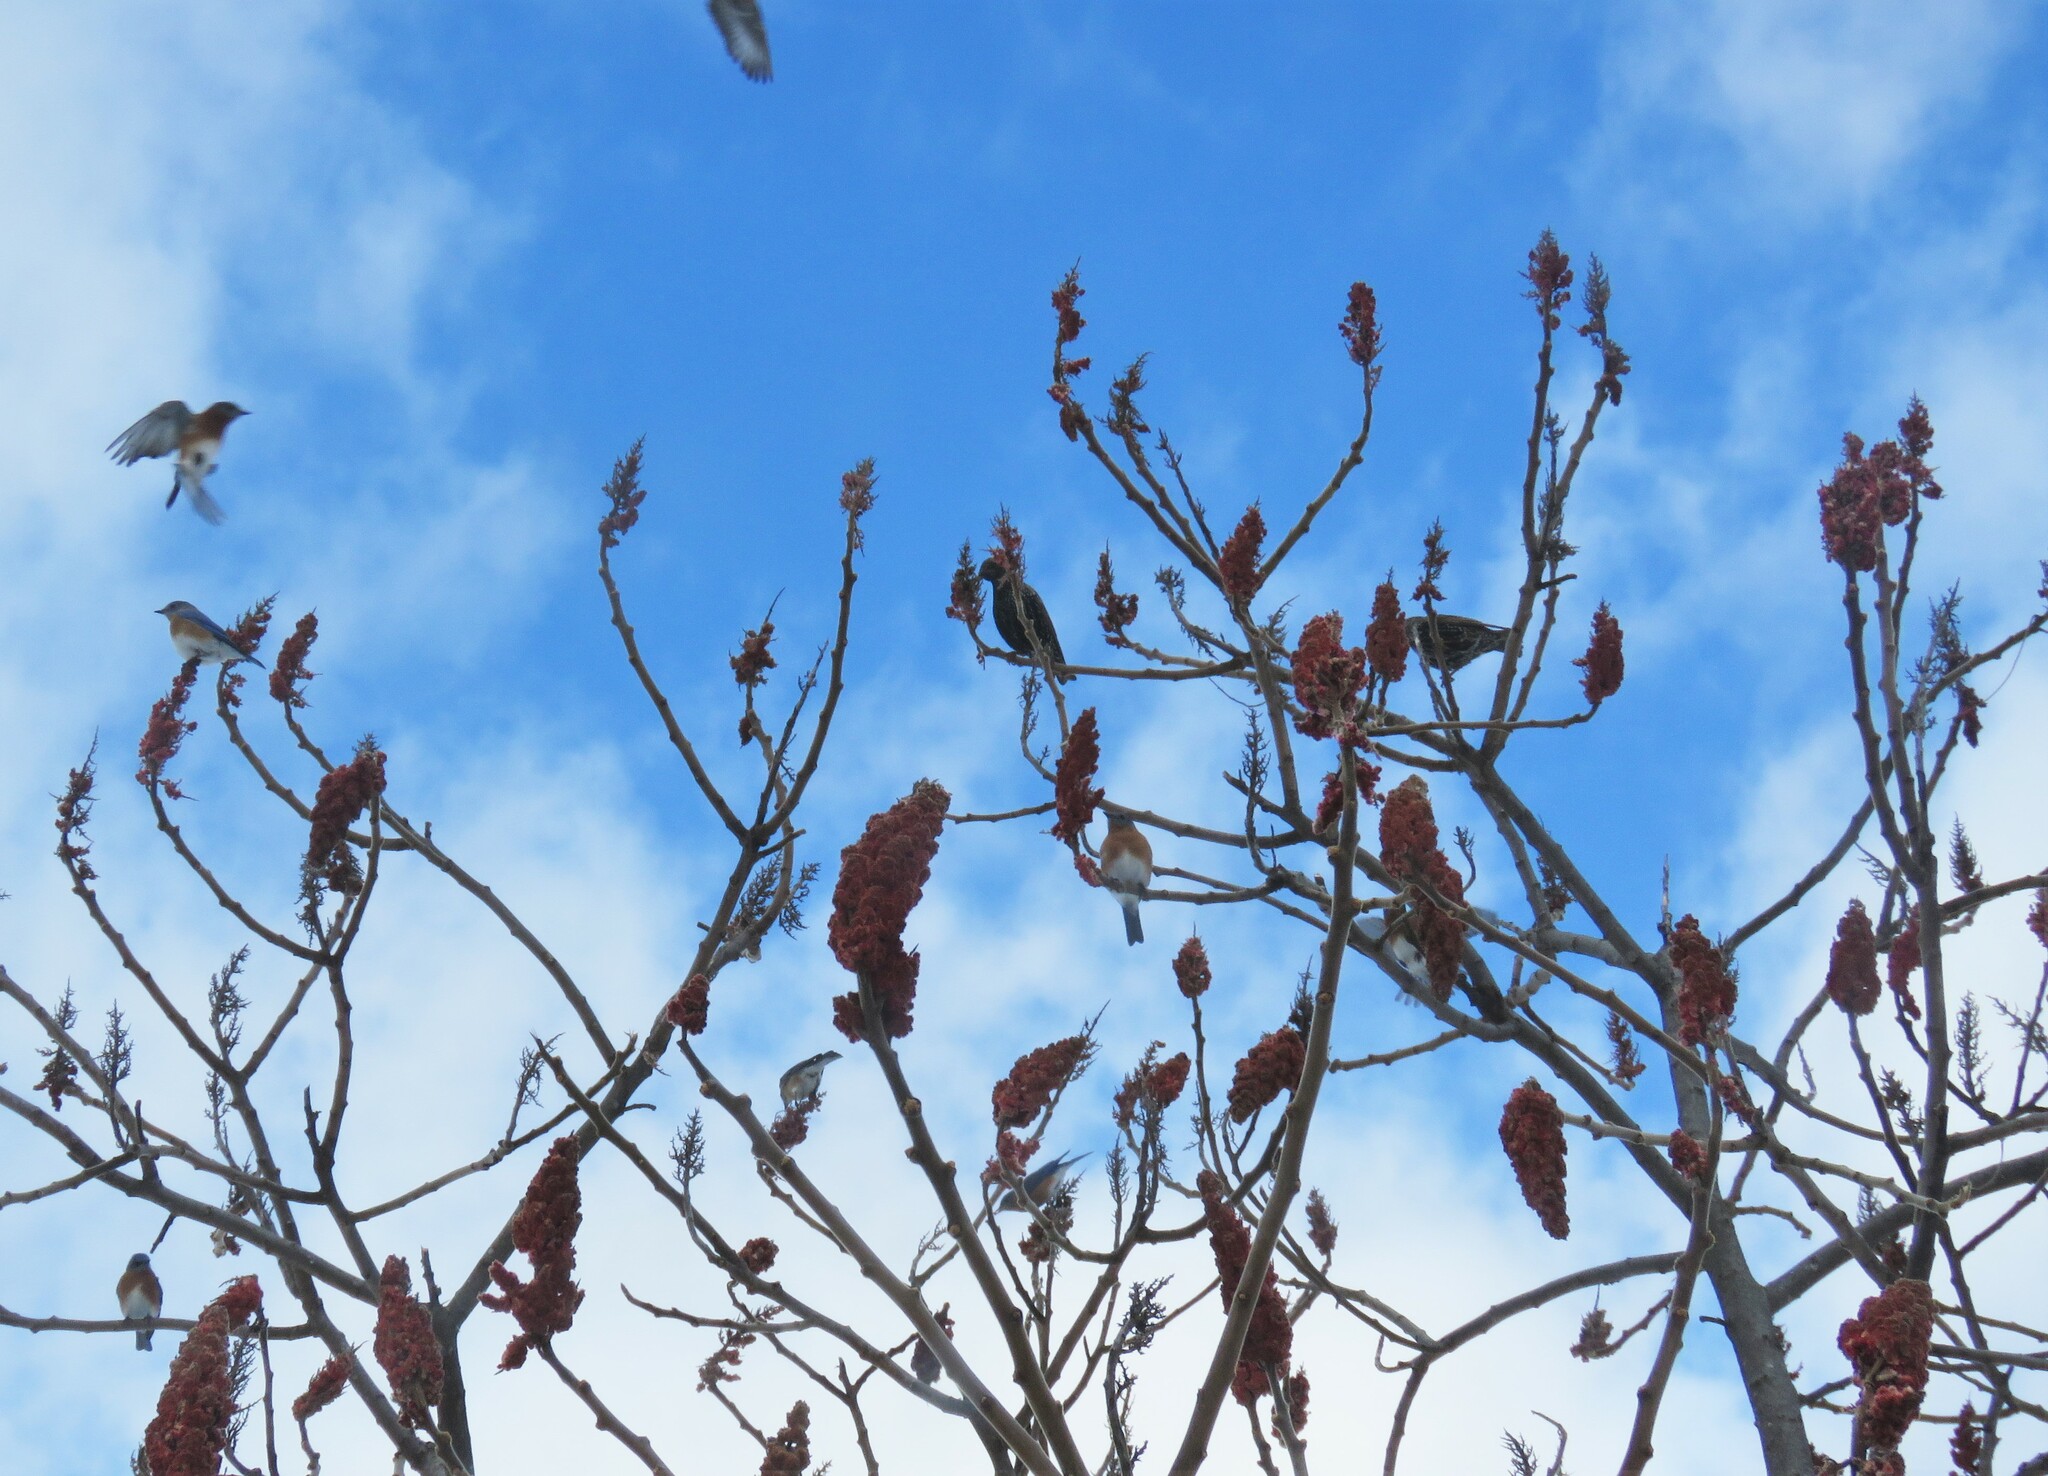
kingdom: Animalia
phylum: Chordata
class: Aves
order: Passeriformes
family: Turdidae
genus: Sialia
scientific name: Sialia sialis
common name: Eastern bluebird
